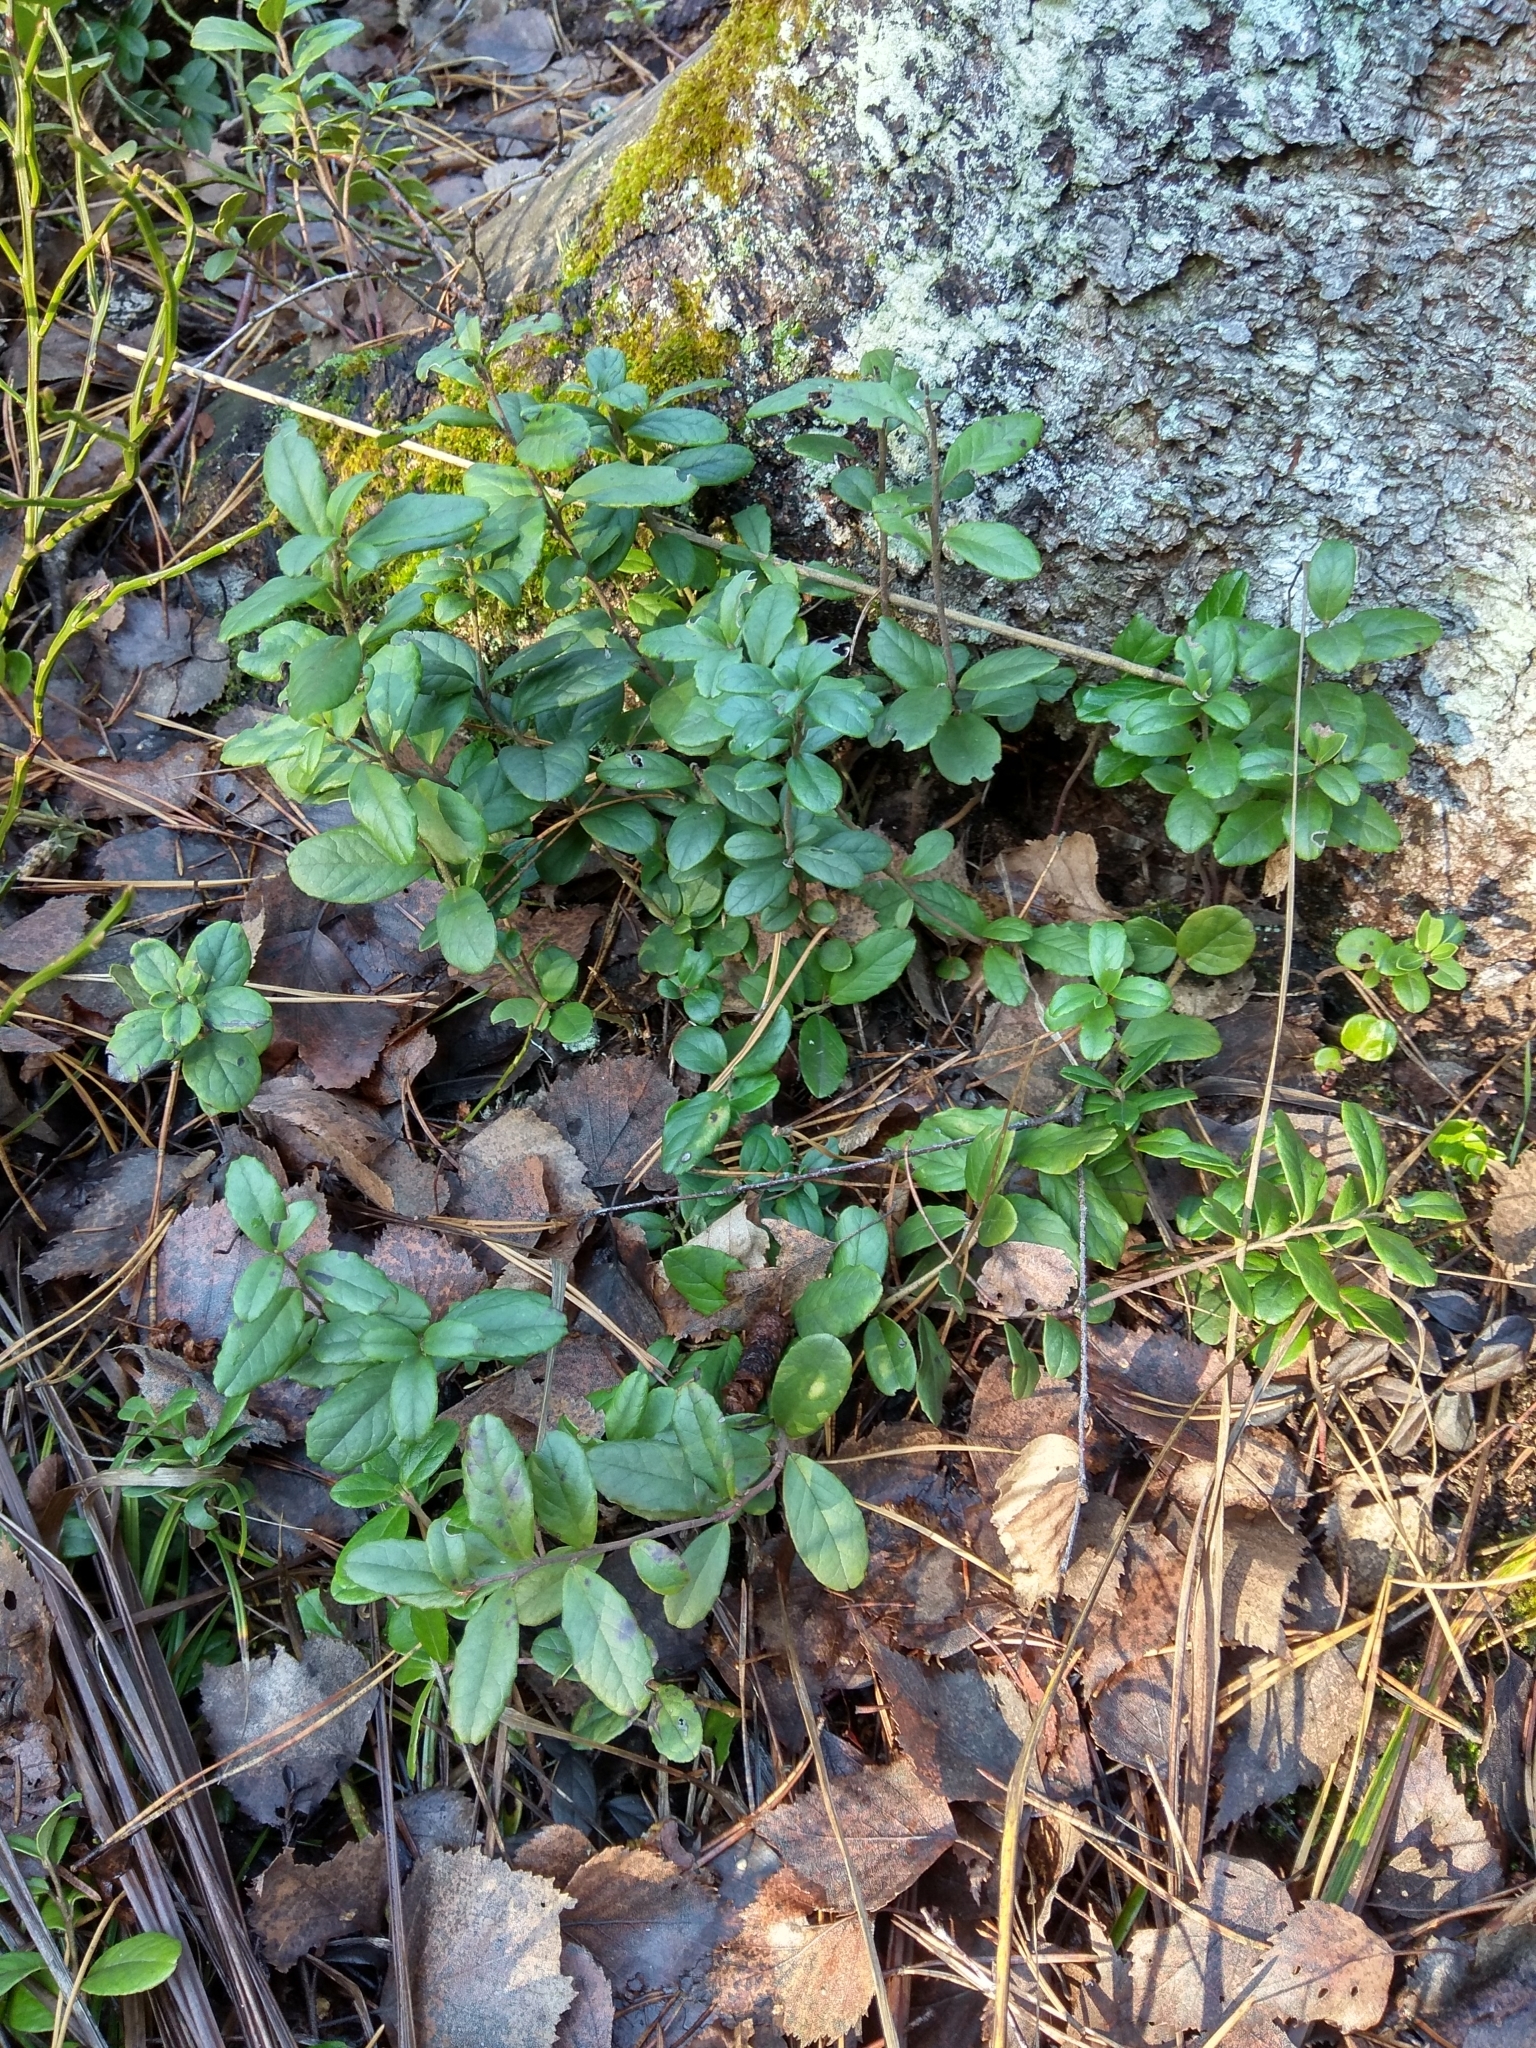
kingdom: Plantae
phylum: Tracheophyta
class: Magnoliopsida
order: Ericales
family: Ericaceae
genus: Vaccinium
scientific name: Vaccinium vitis-idaea
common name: Cowberry
